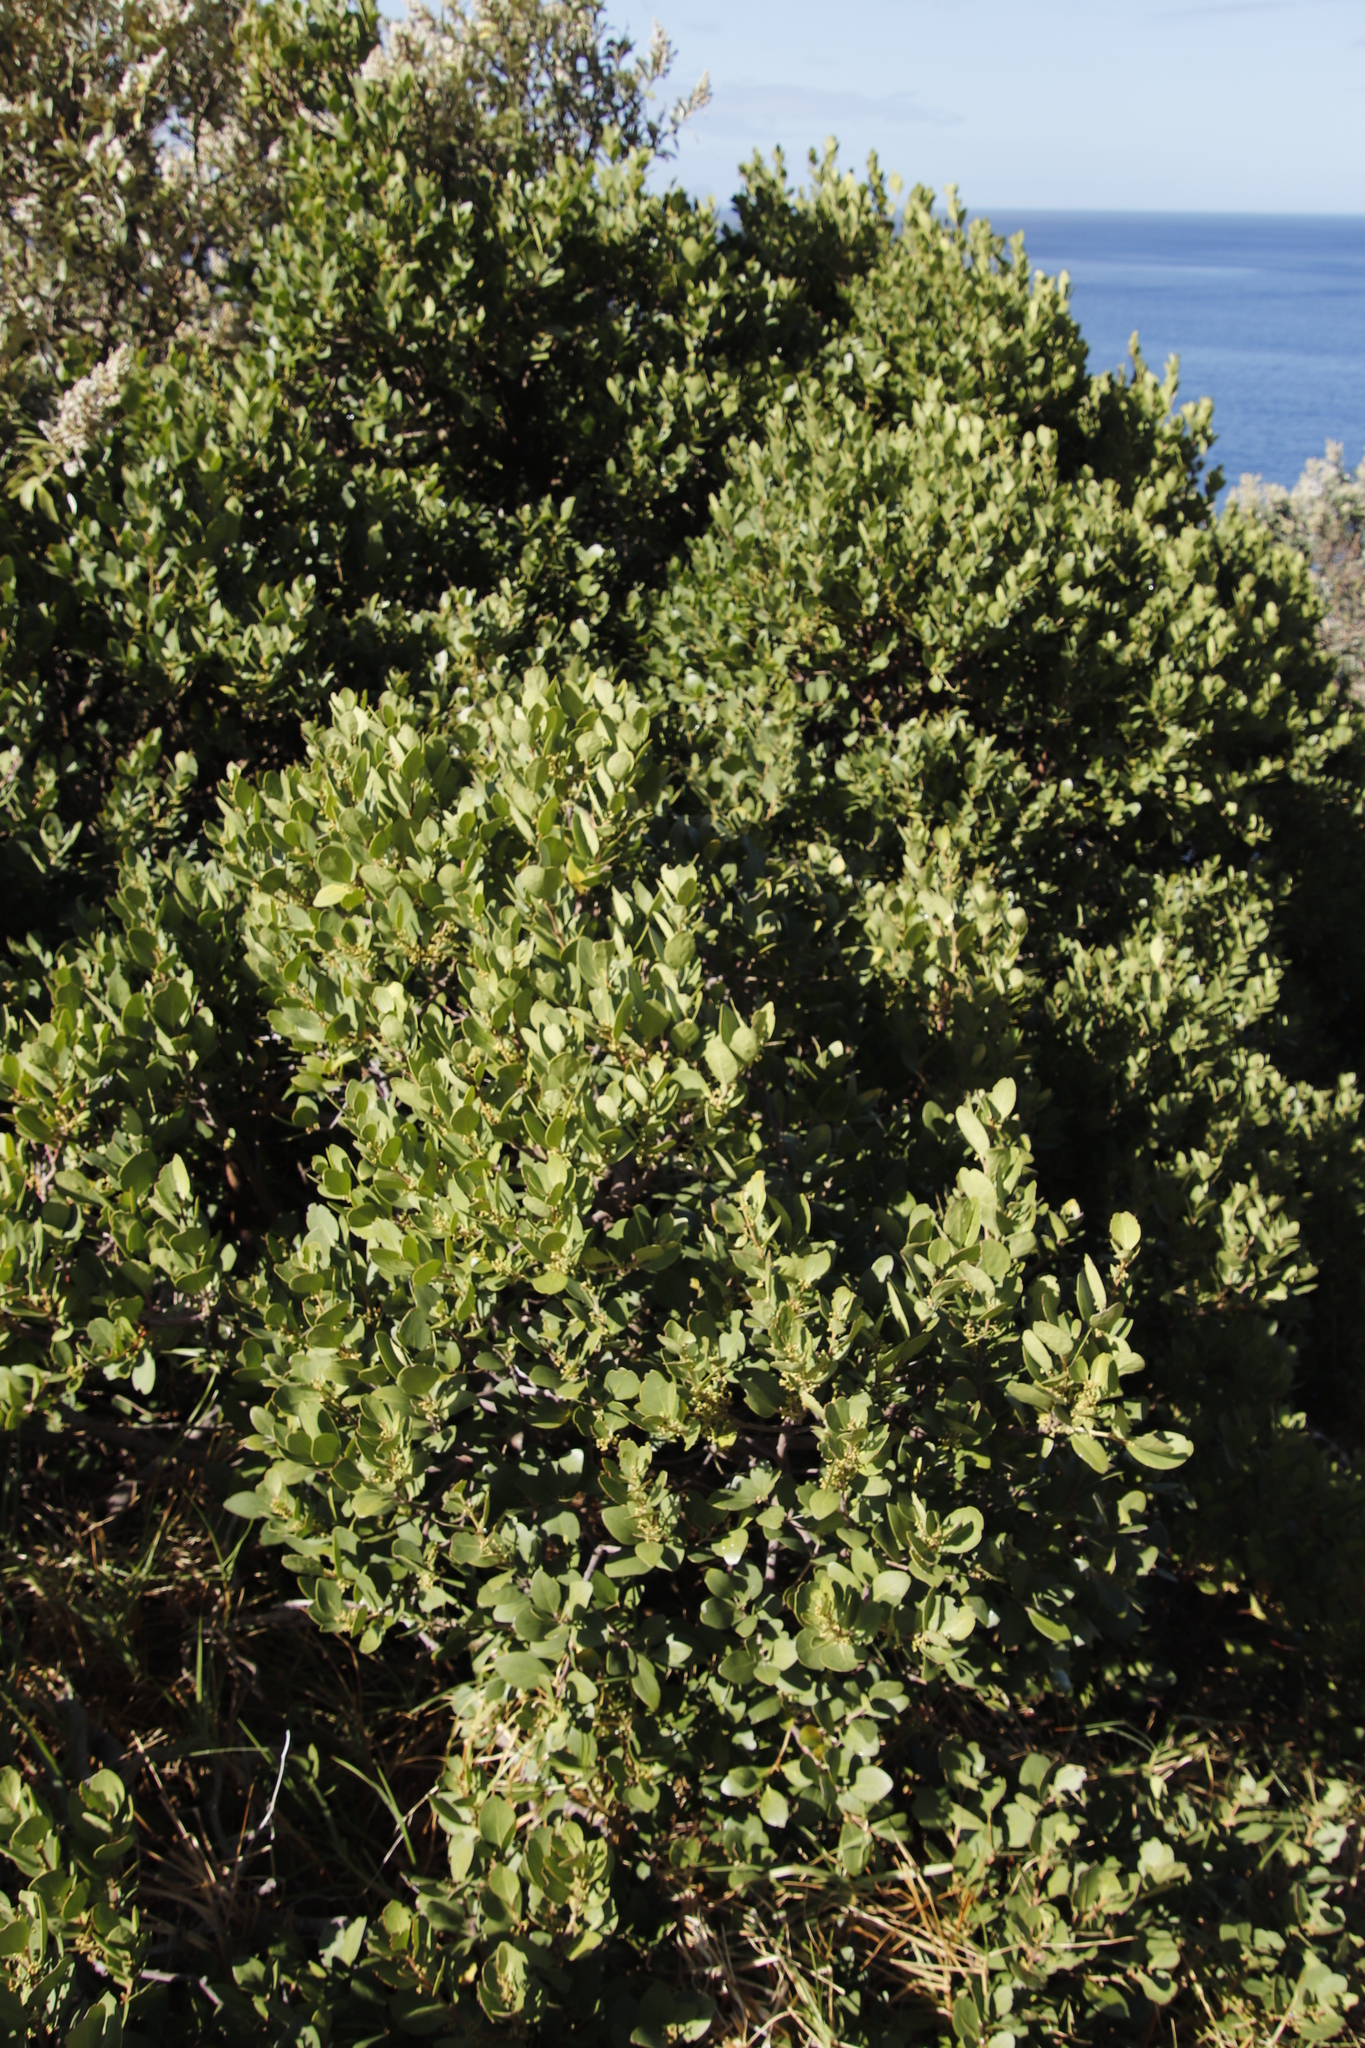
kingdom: Plantae
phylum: Tracheophyta
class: Magnoliopsida
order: Celastrales
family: Celastraceae
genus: Robsonodendron
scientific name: Robsonodendron maritimum
